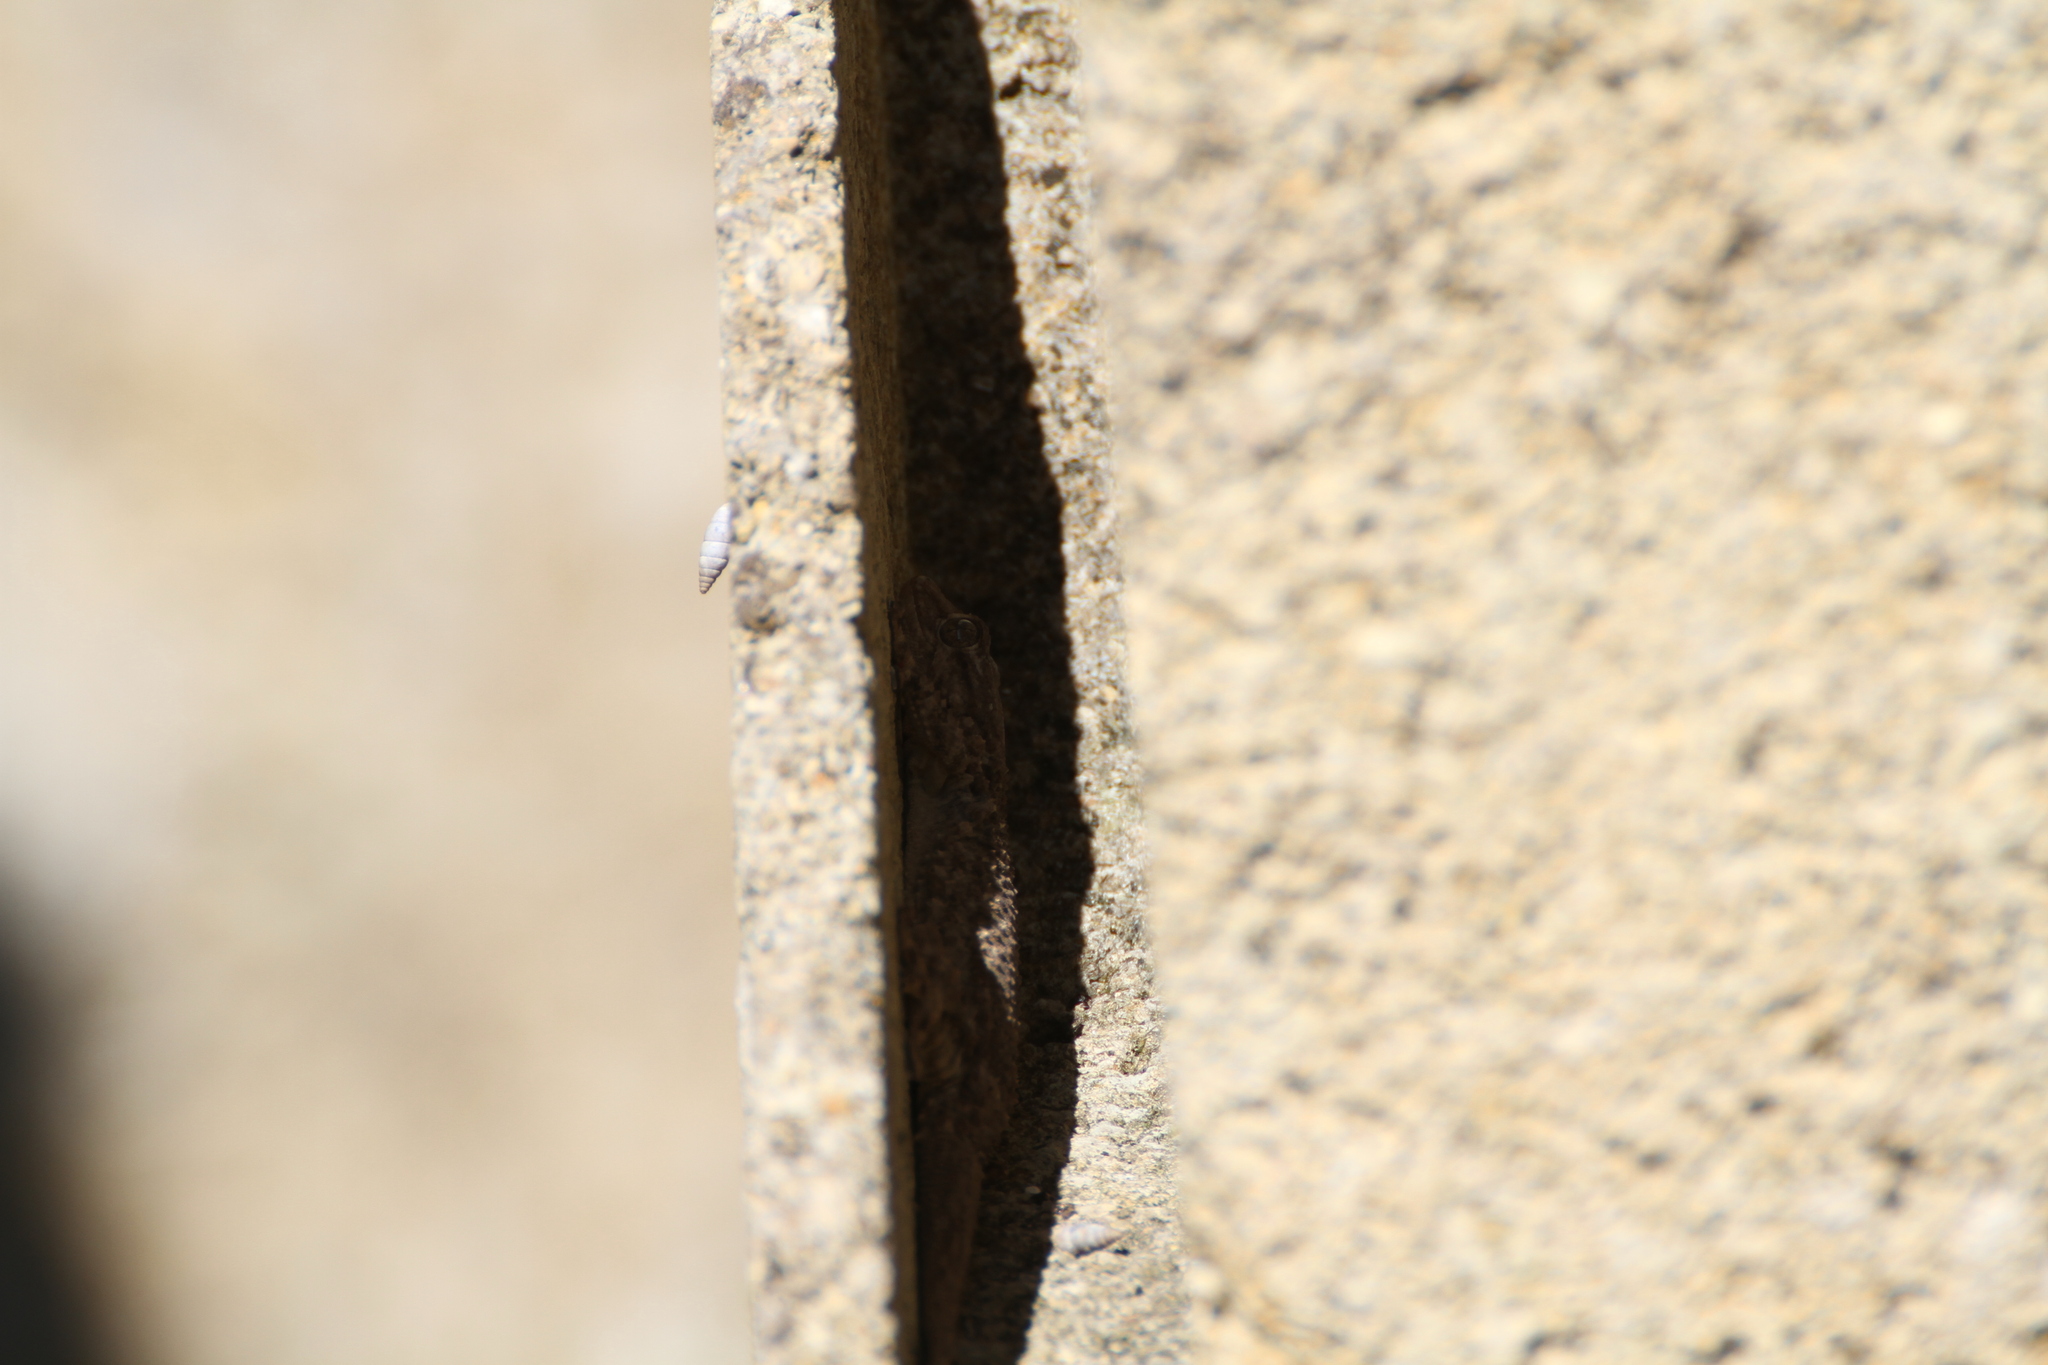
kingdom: Animalia
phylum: Chordata
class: Squamata
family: Phyllodactylidae
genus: Tarentola
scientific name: Tarentola mauritanica
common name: Moorish gecko
